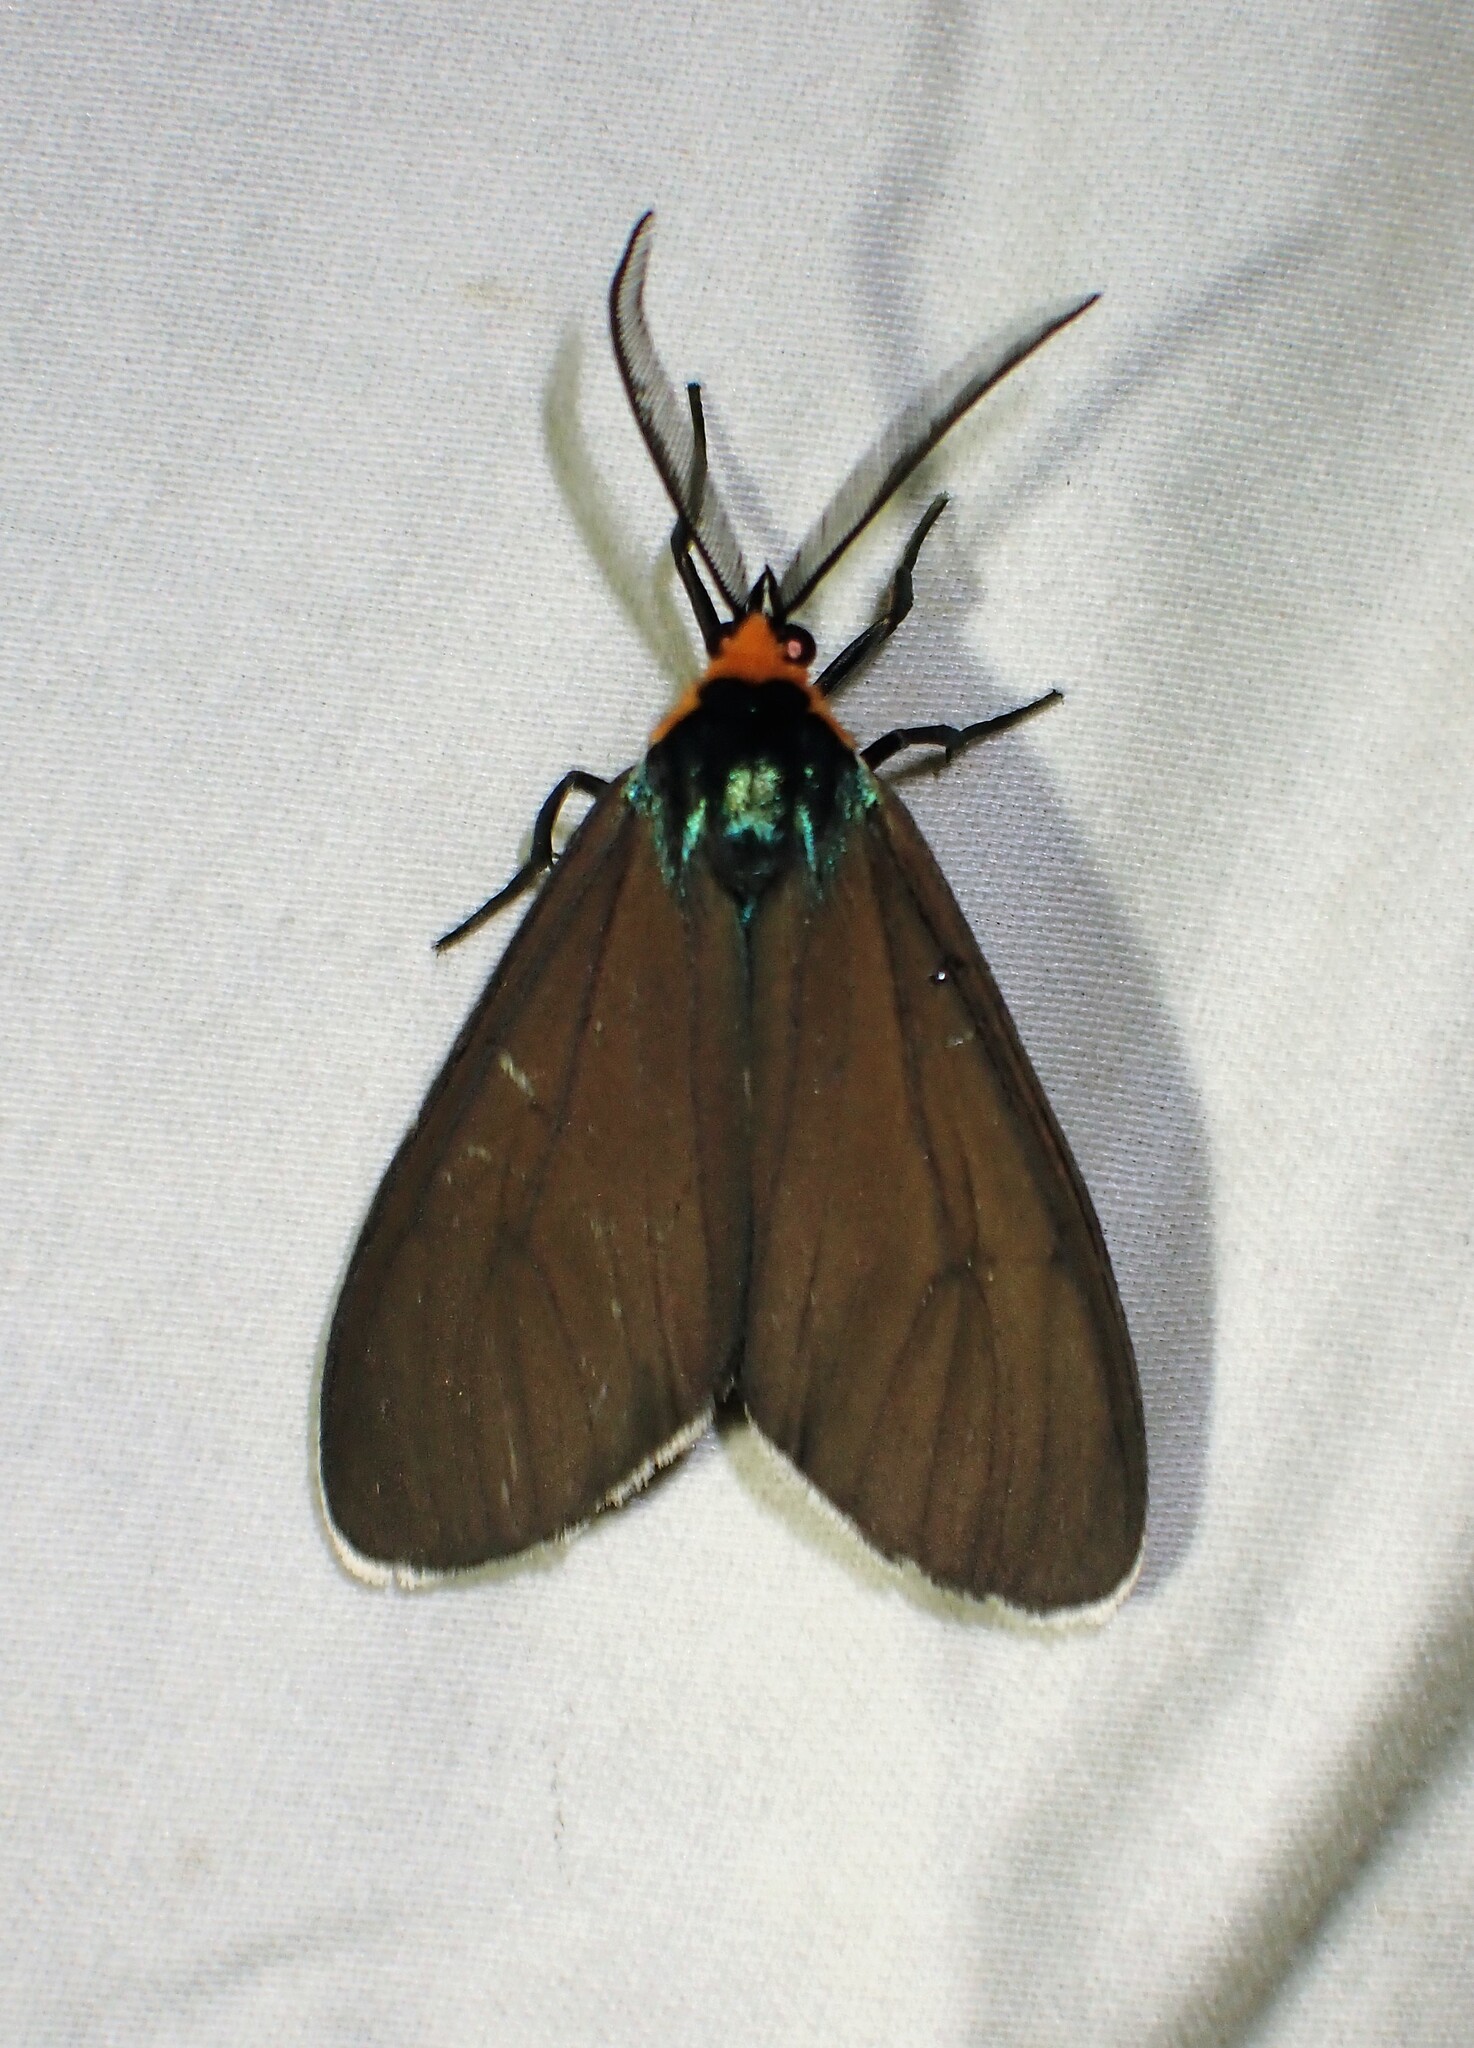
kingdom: Animalia
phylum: Arthropoda
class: Insecta
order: Lepidoptera
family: Erebidae
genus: Ctenucha
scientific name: Ctenucha virginica
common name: Virginia ctenucha moth
